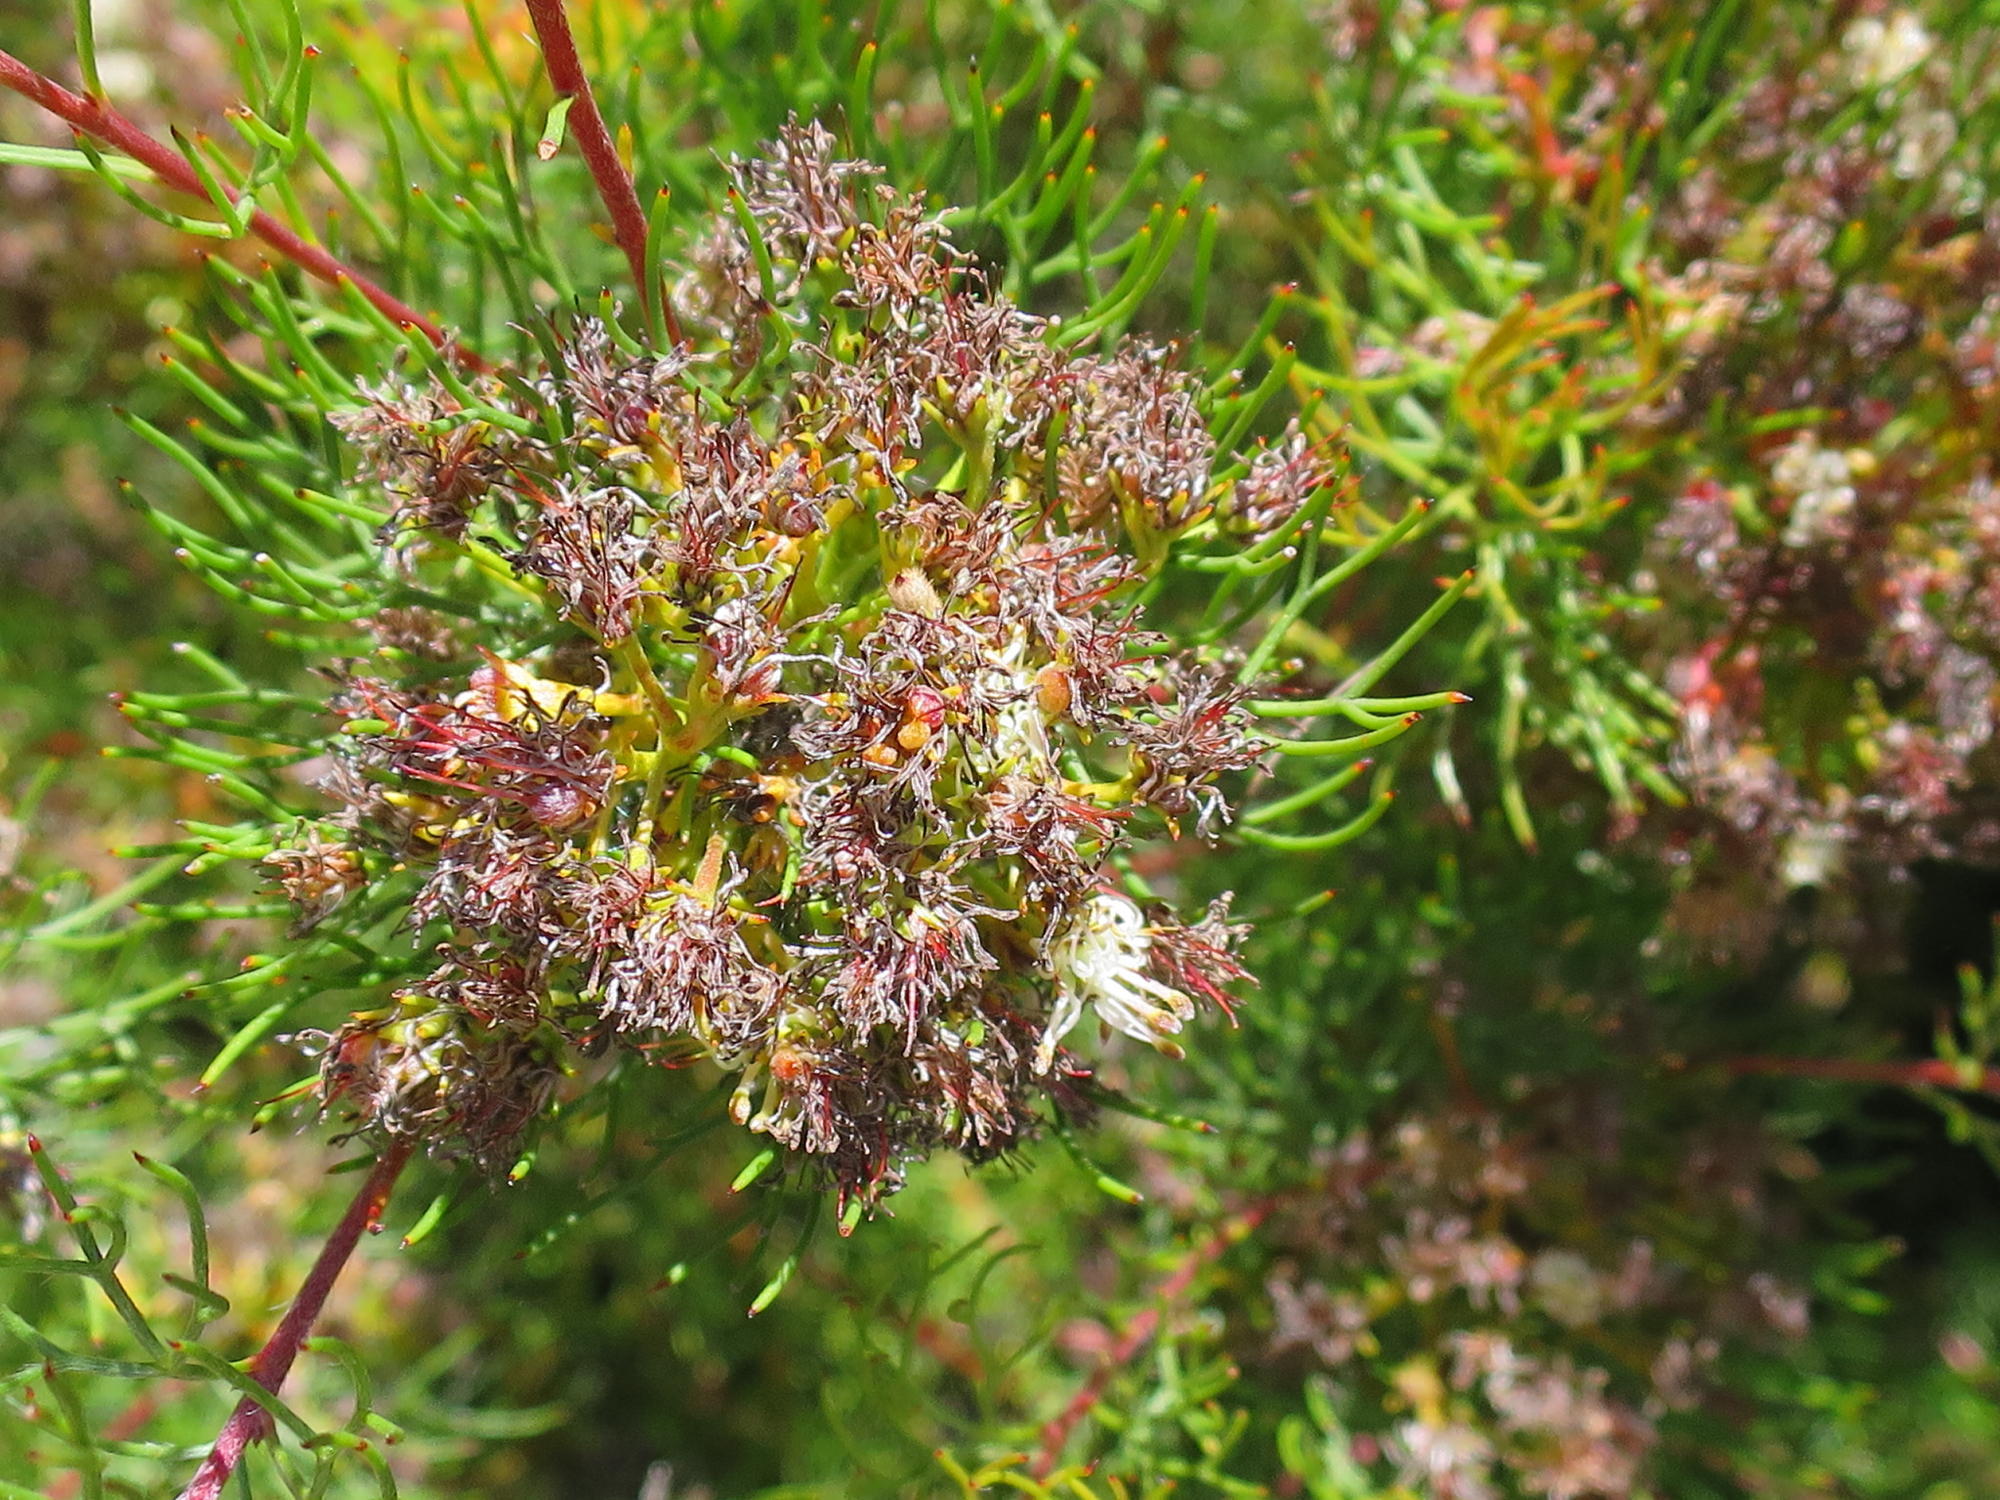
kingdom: Plantae
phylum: Tracheophyta
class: Magnoliopsida
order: Proteales
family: Proteaceae
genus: Serruria
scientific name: Serruria fasciflora
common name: Common pin spiderhead
